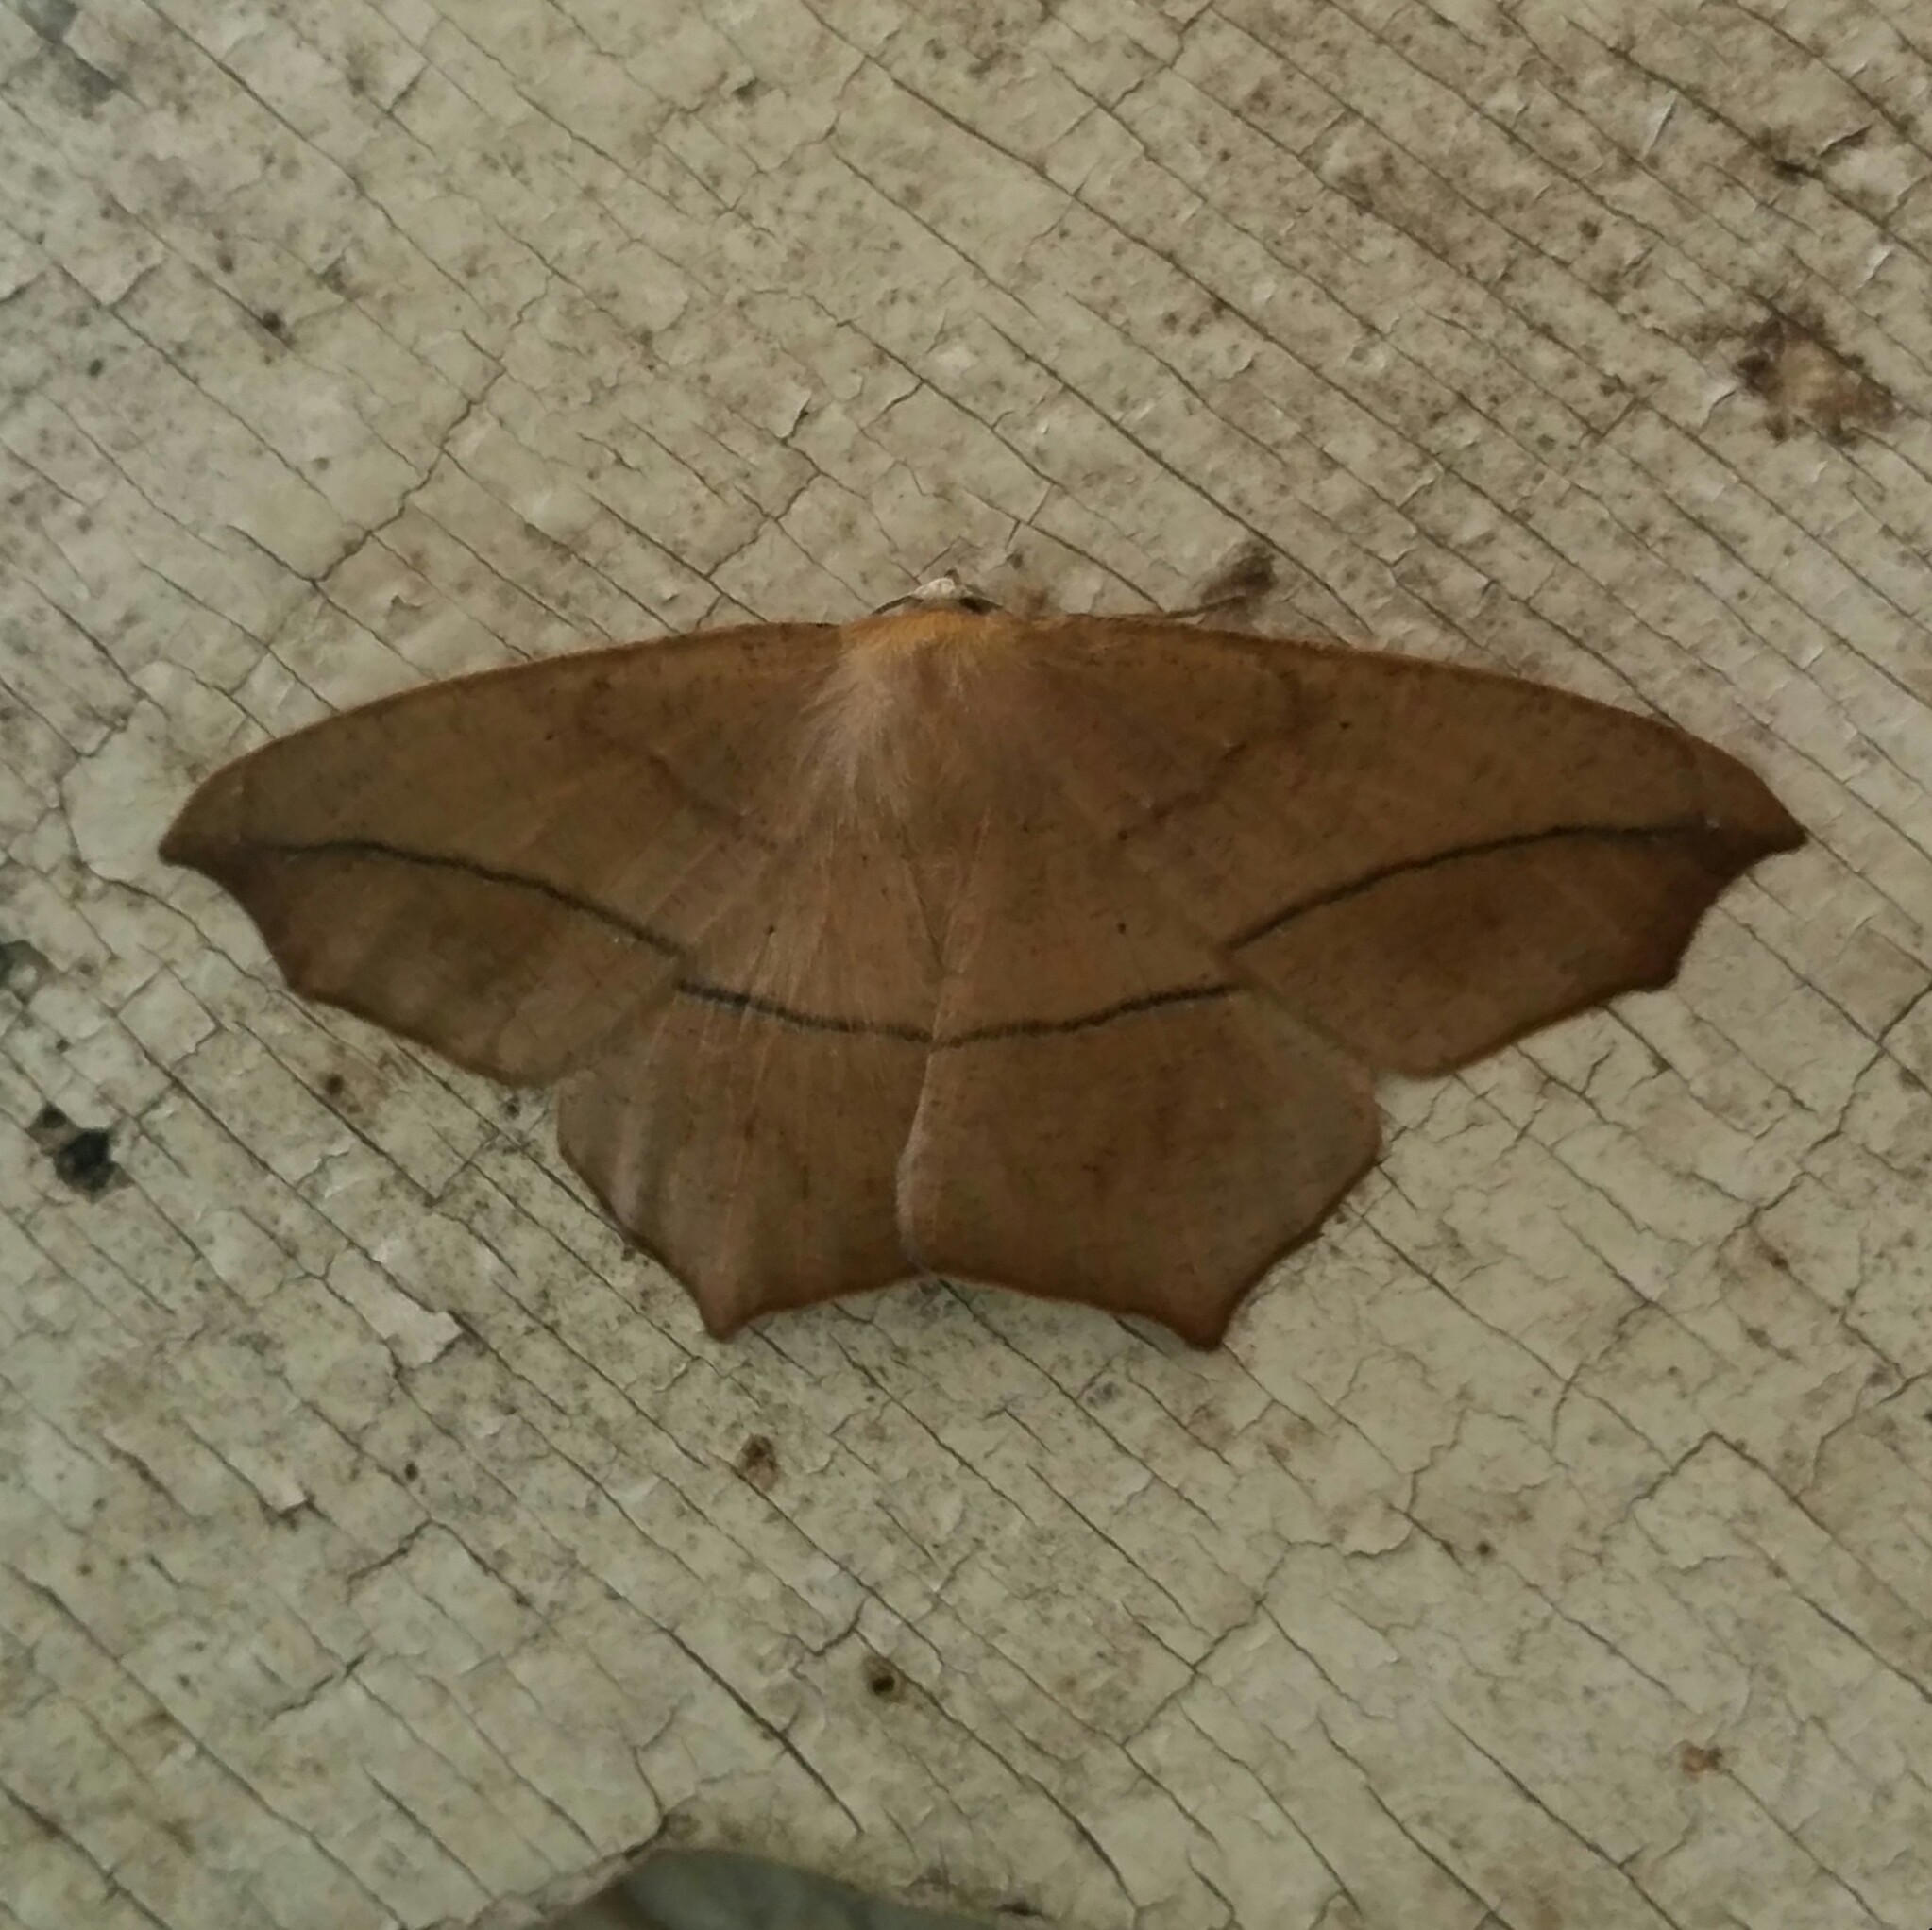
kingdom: Animalia
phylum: Arthropoda
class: Insecta
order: Lepidoptera
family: Geometridae
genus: Prochoerodes
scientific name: Prochoerodes lineola
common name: Large maple spanworm
